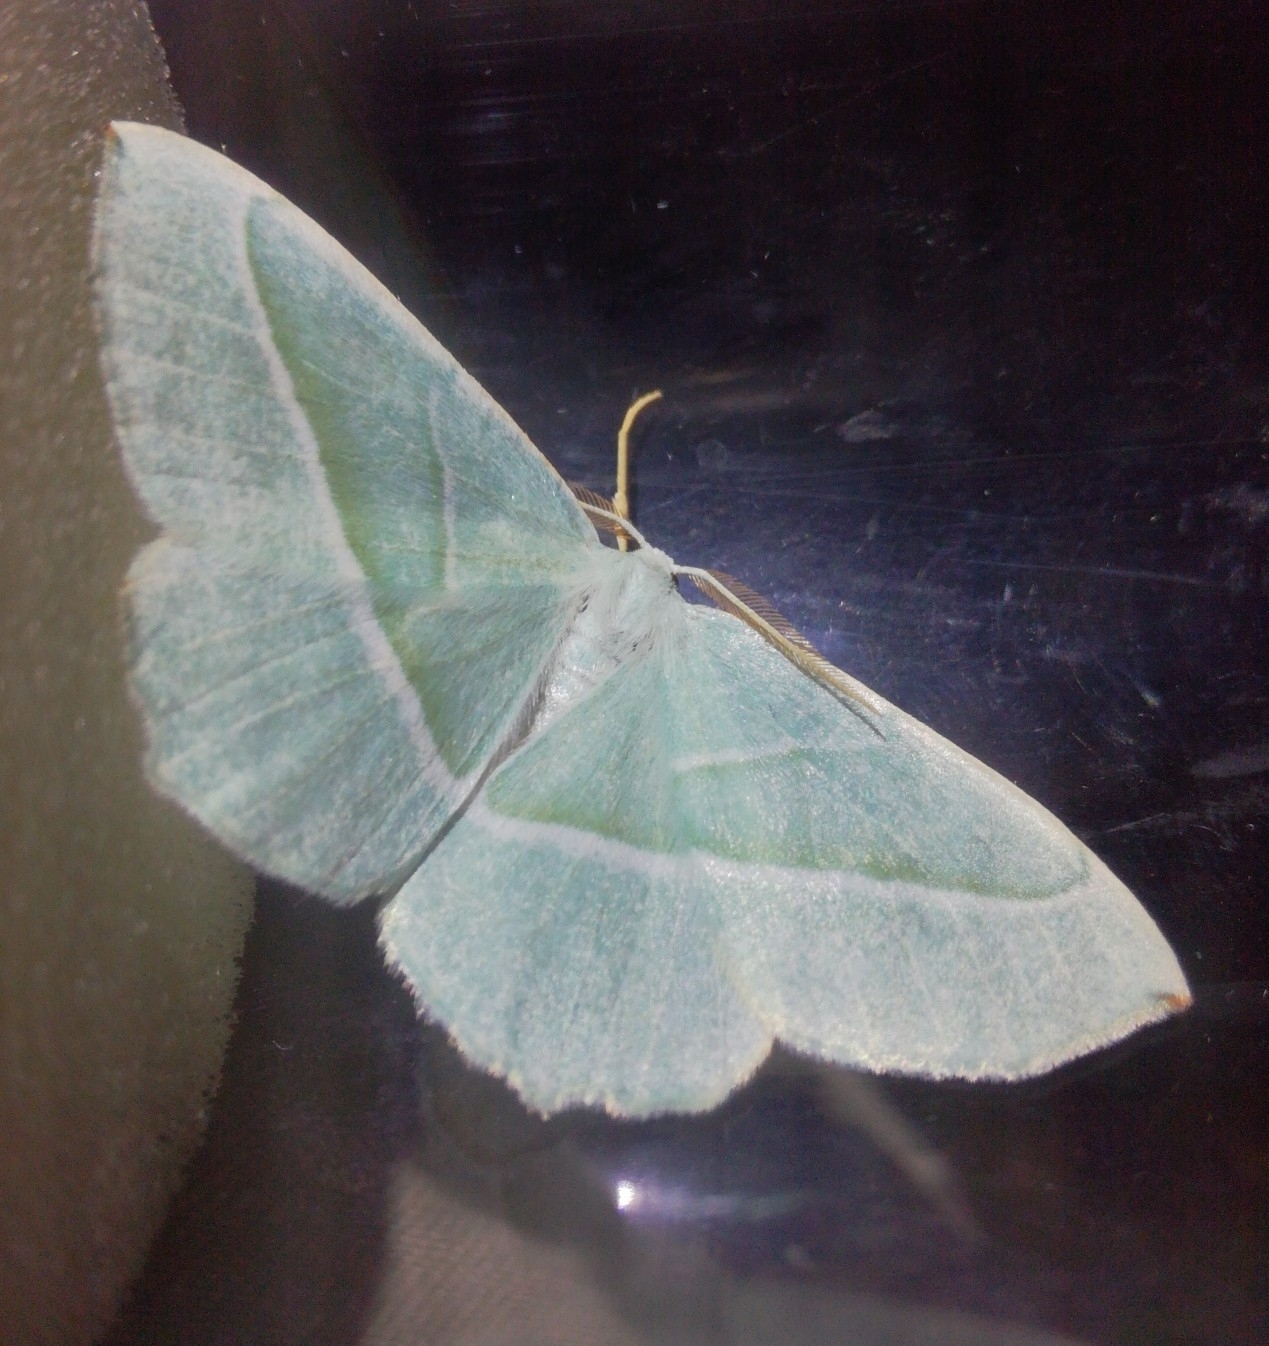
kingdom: Animalia
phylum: Arthropoda
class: Insecta
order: Lepidoptera
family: Geometridae
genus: Campaea
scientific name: Campaea margaritaria
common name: Light emerald
